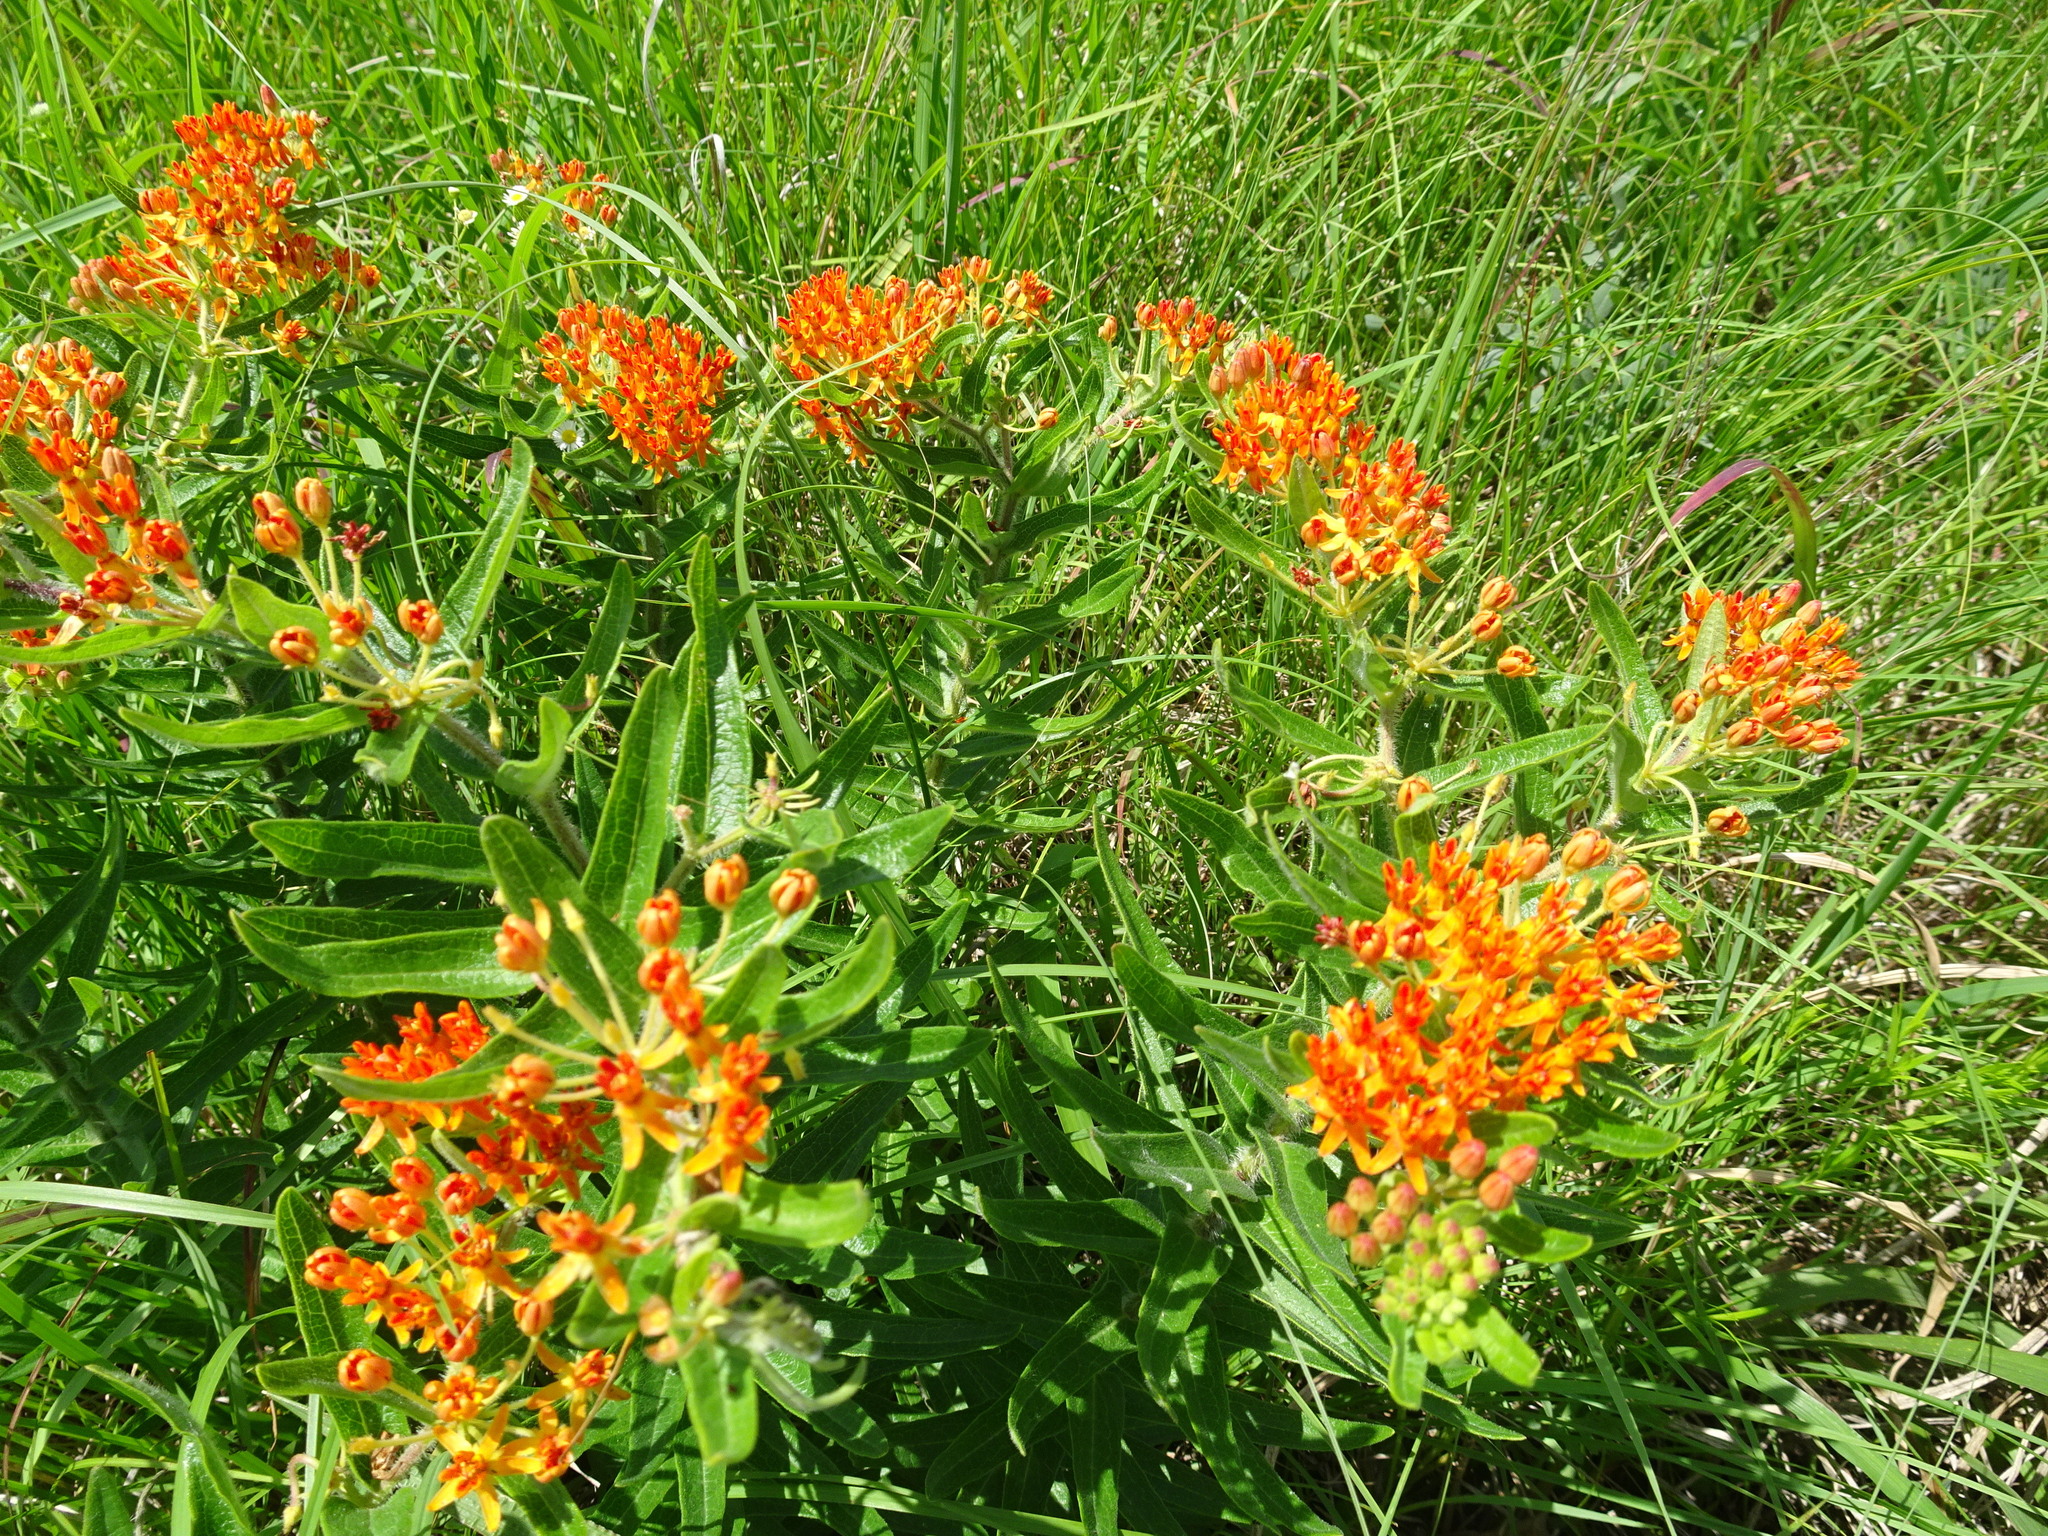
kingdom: Plantae
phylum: Tracheophyta
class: Magnoliopsida
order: Gentianales
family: Apocynaceae
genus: Asclepias
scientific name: Asclepias tuberosa
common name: Butterfly milkweed
